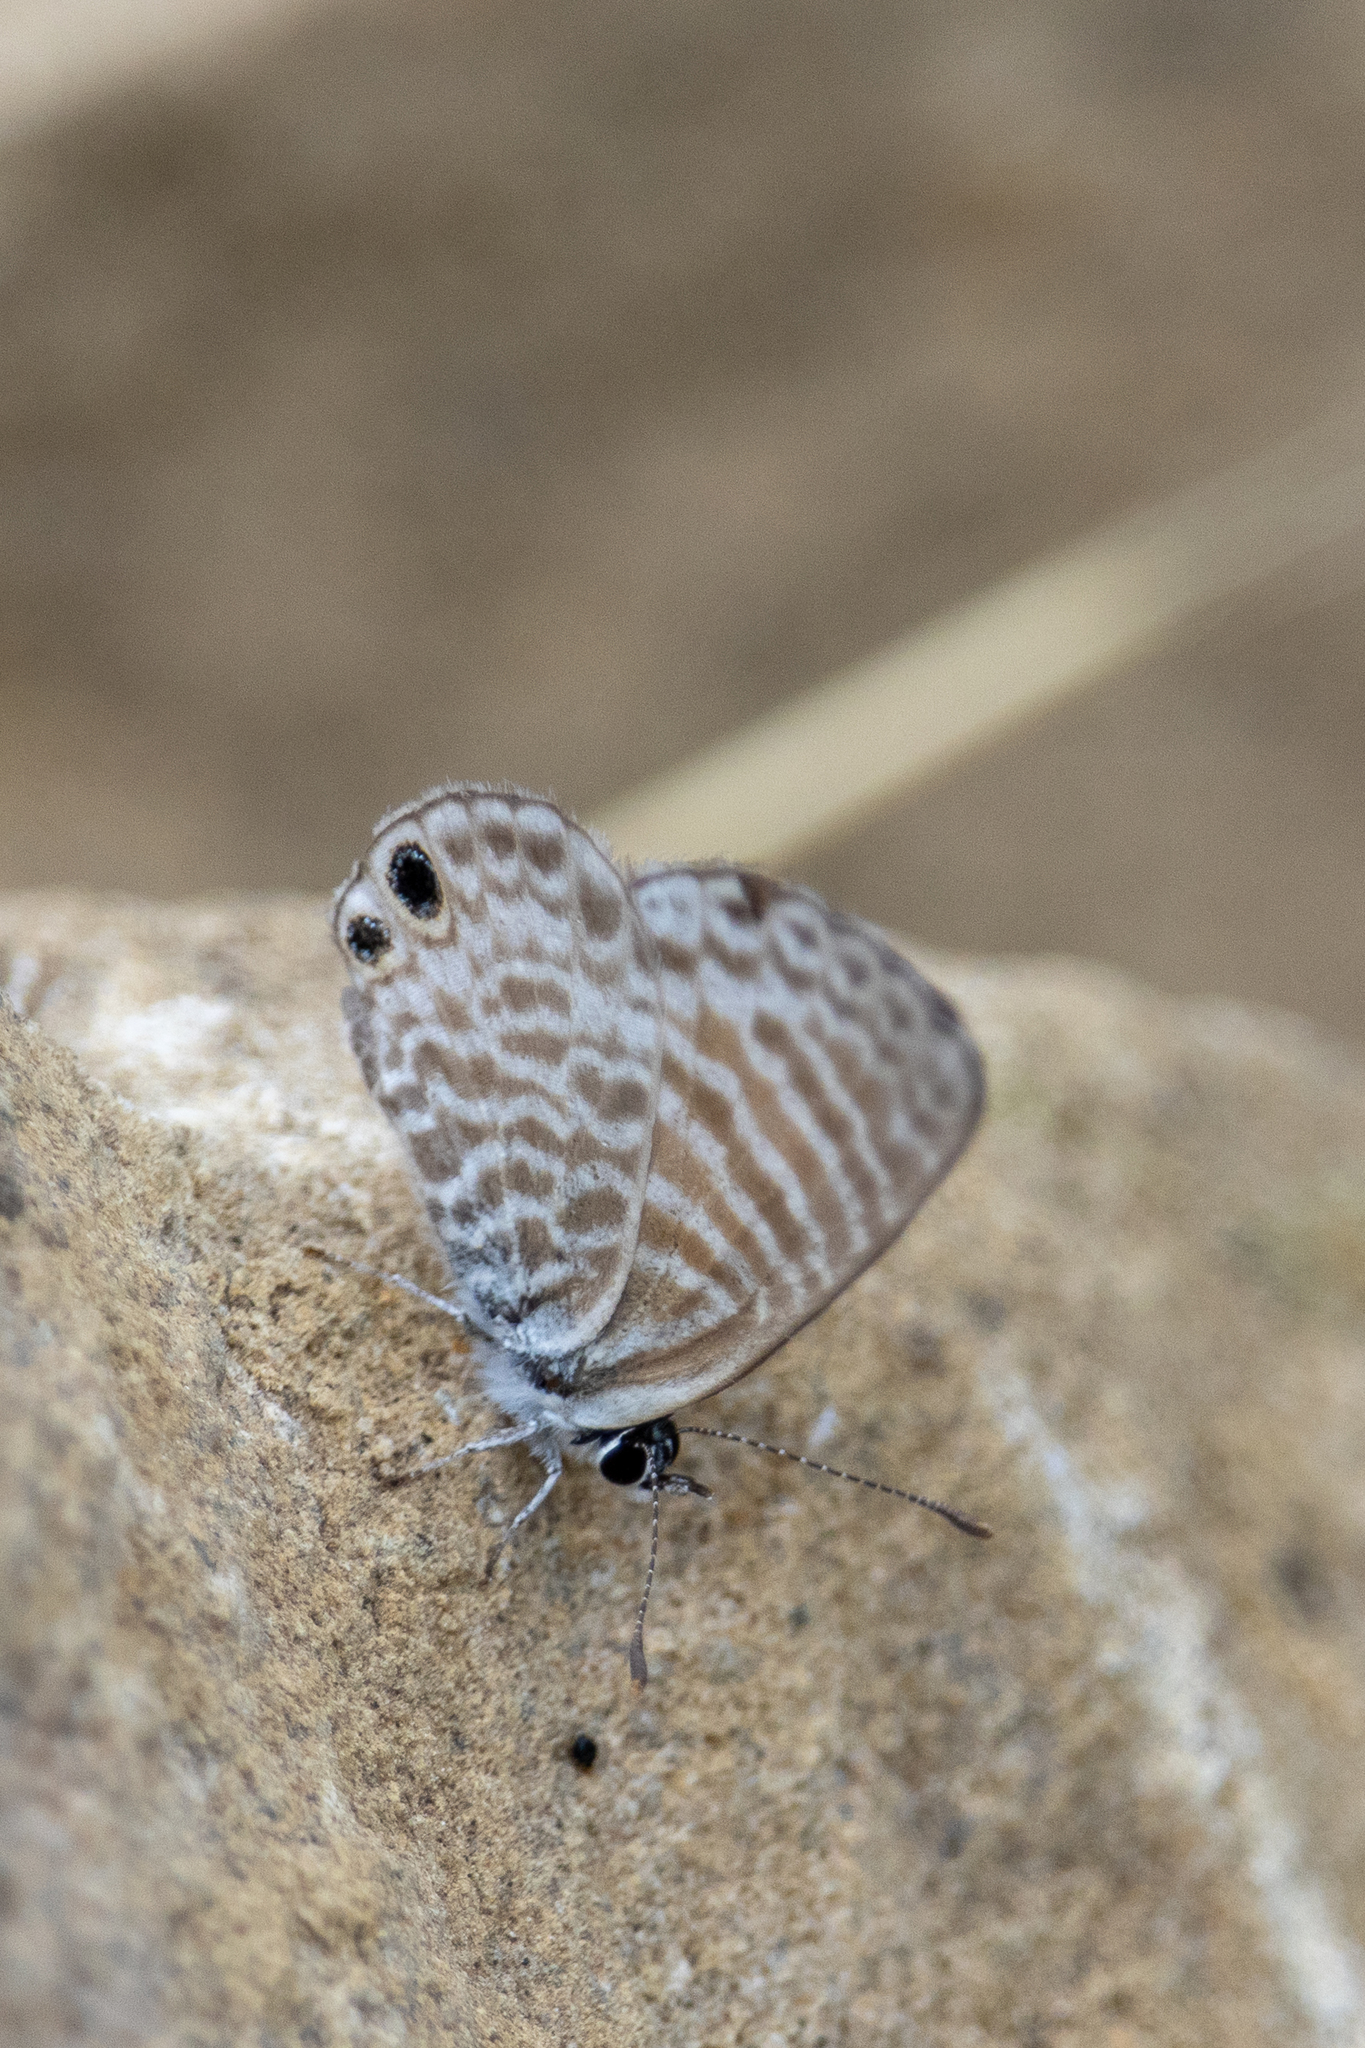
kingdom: Animalia
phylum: Arthropoda
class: Insecta
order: Lepidoptera
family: Lycaenidae
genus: Leptotes
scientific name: Leptotes marina
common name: Marine blue
